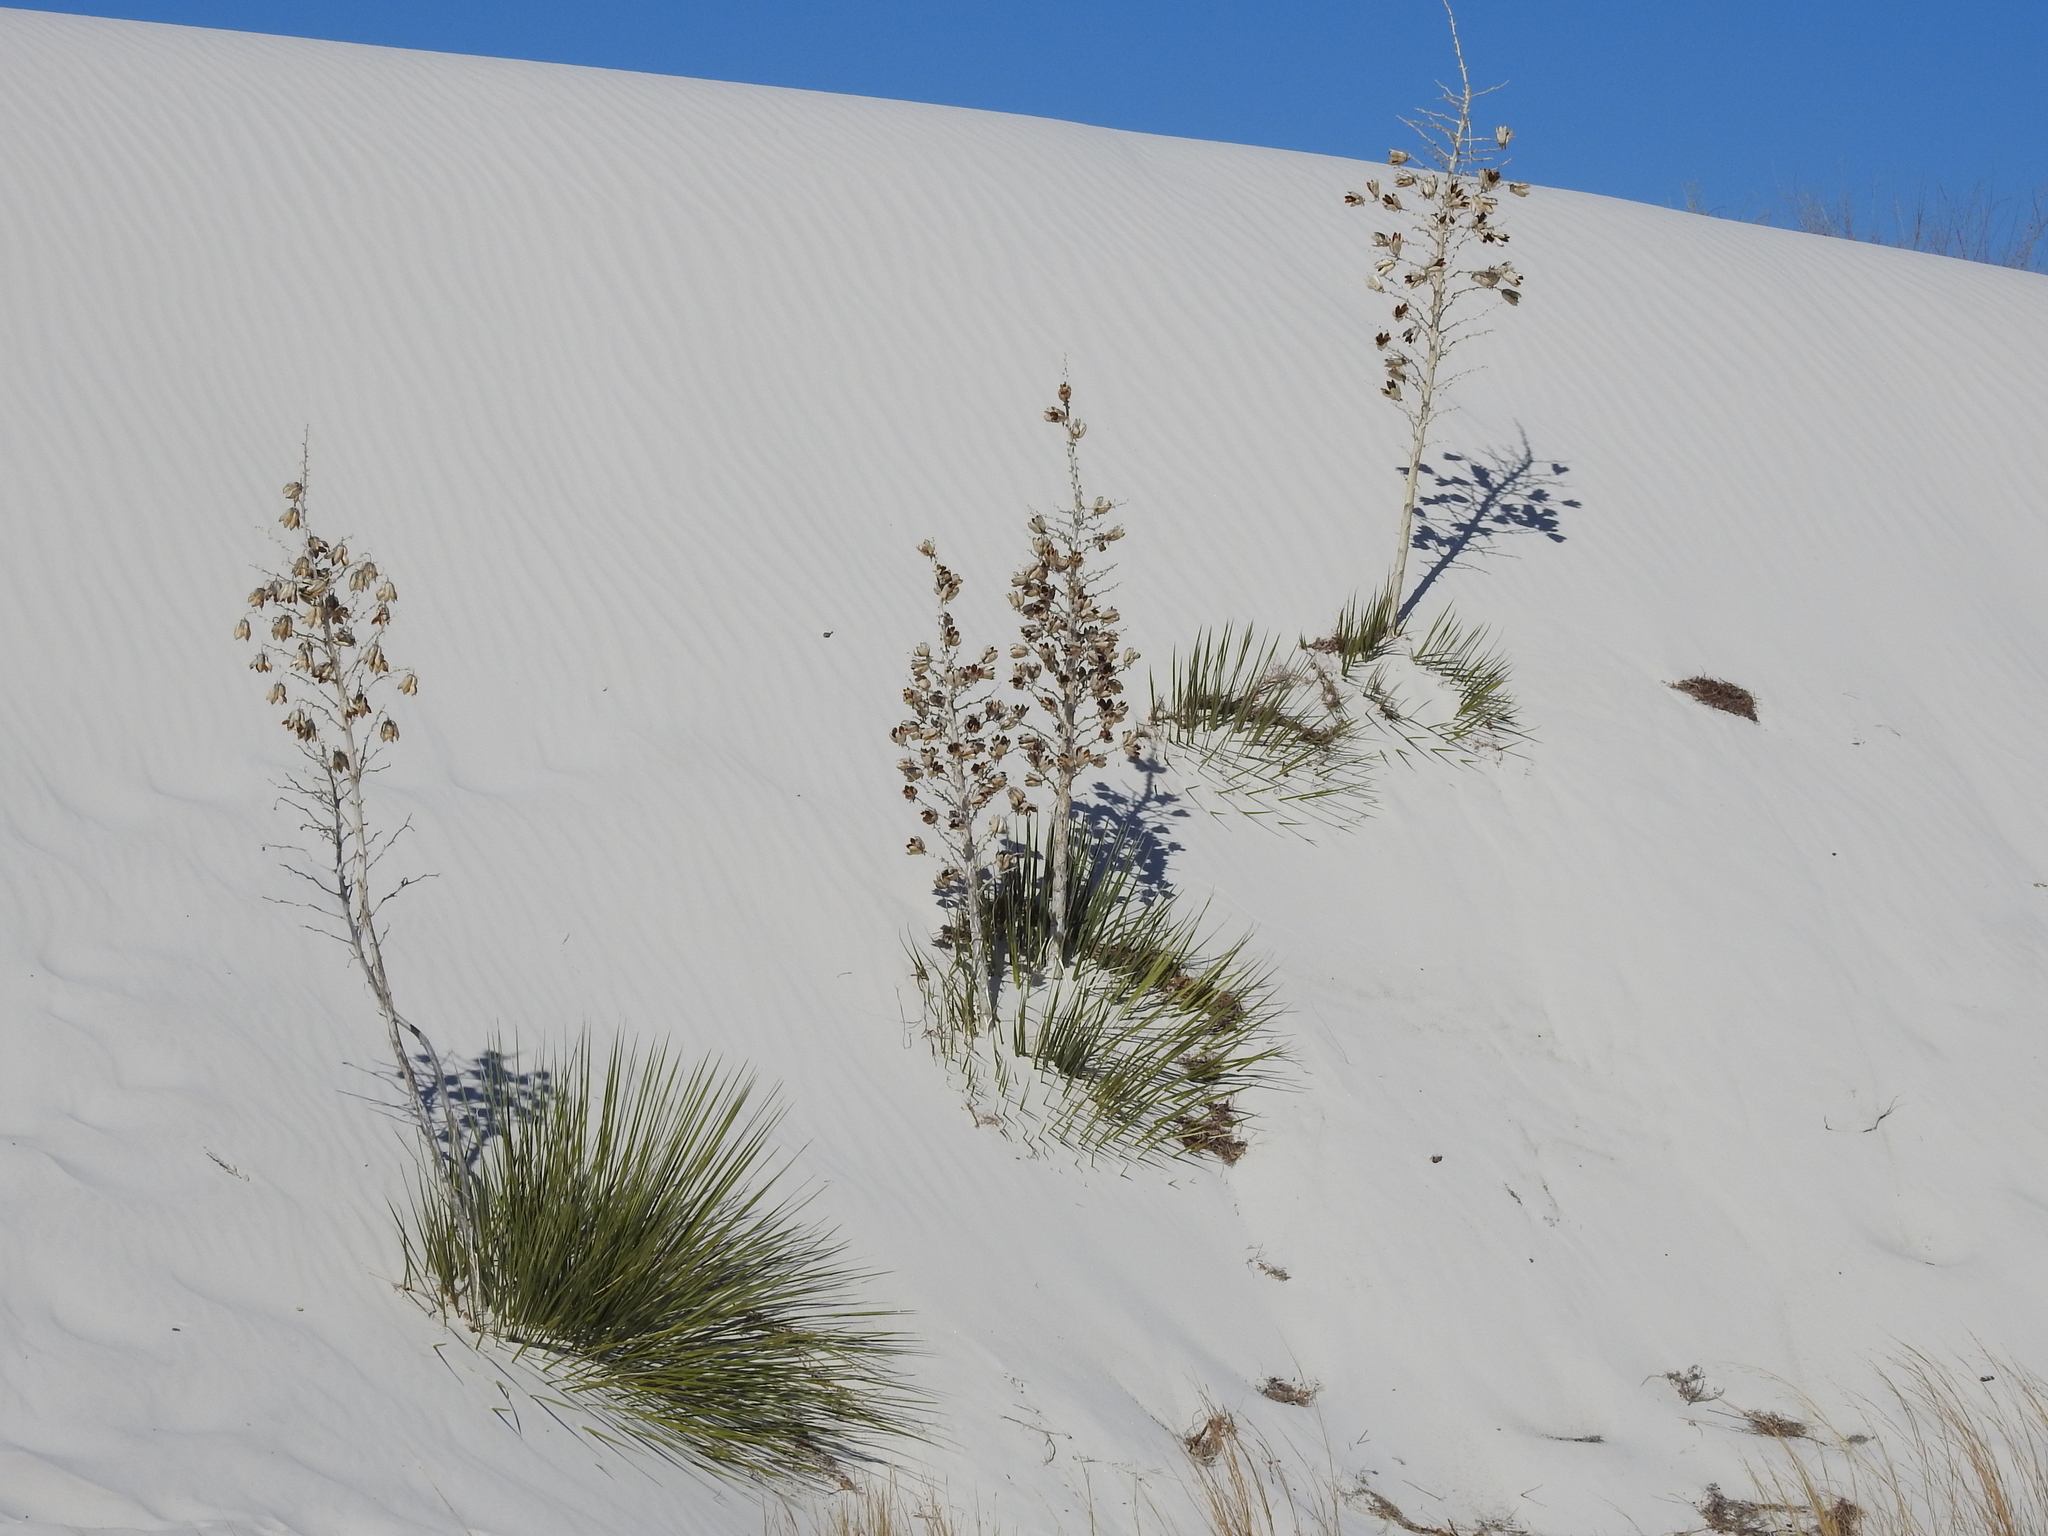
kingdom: Plantae
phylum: Tracheophyta
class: Liliopsida
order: Asparagales
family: Asparagaceae
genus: Yucca
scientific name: Yucca elata
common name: Palmella
